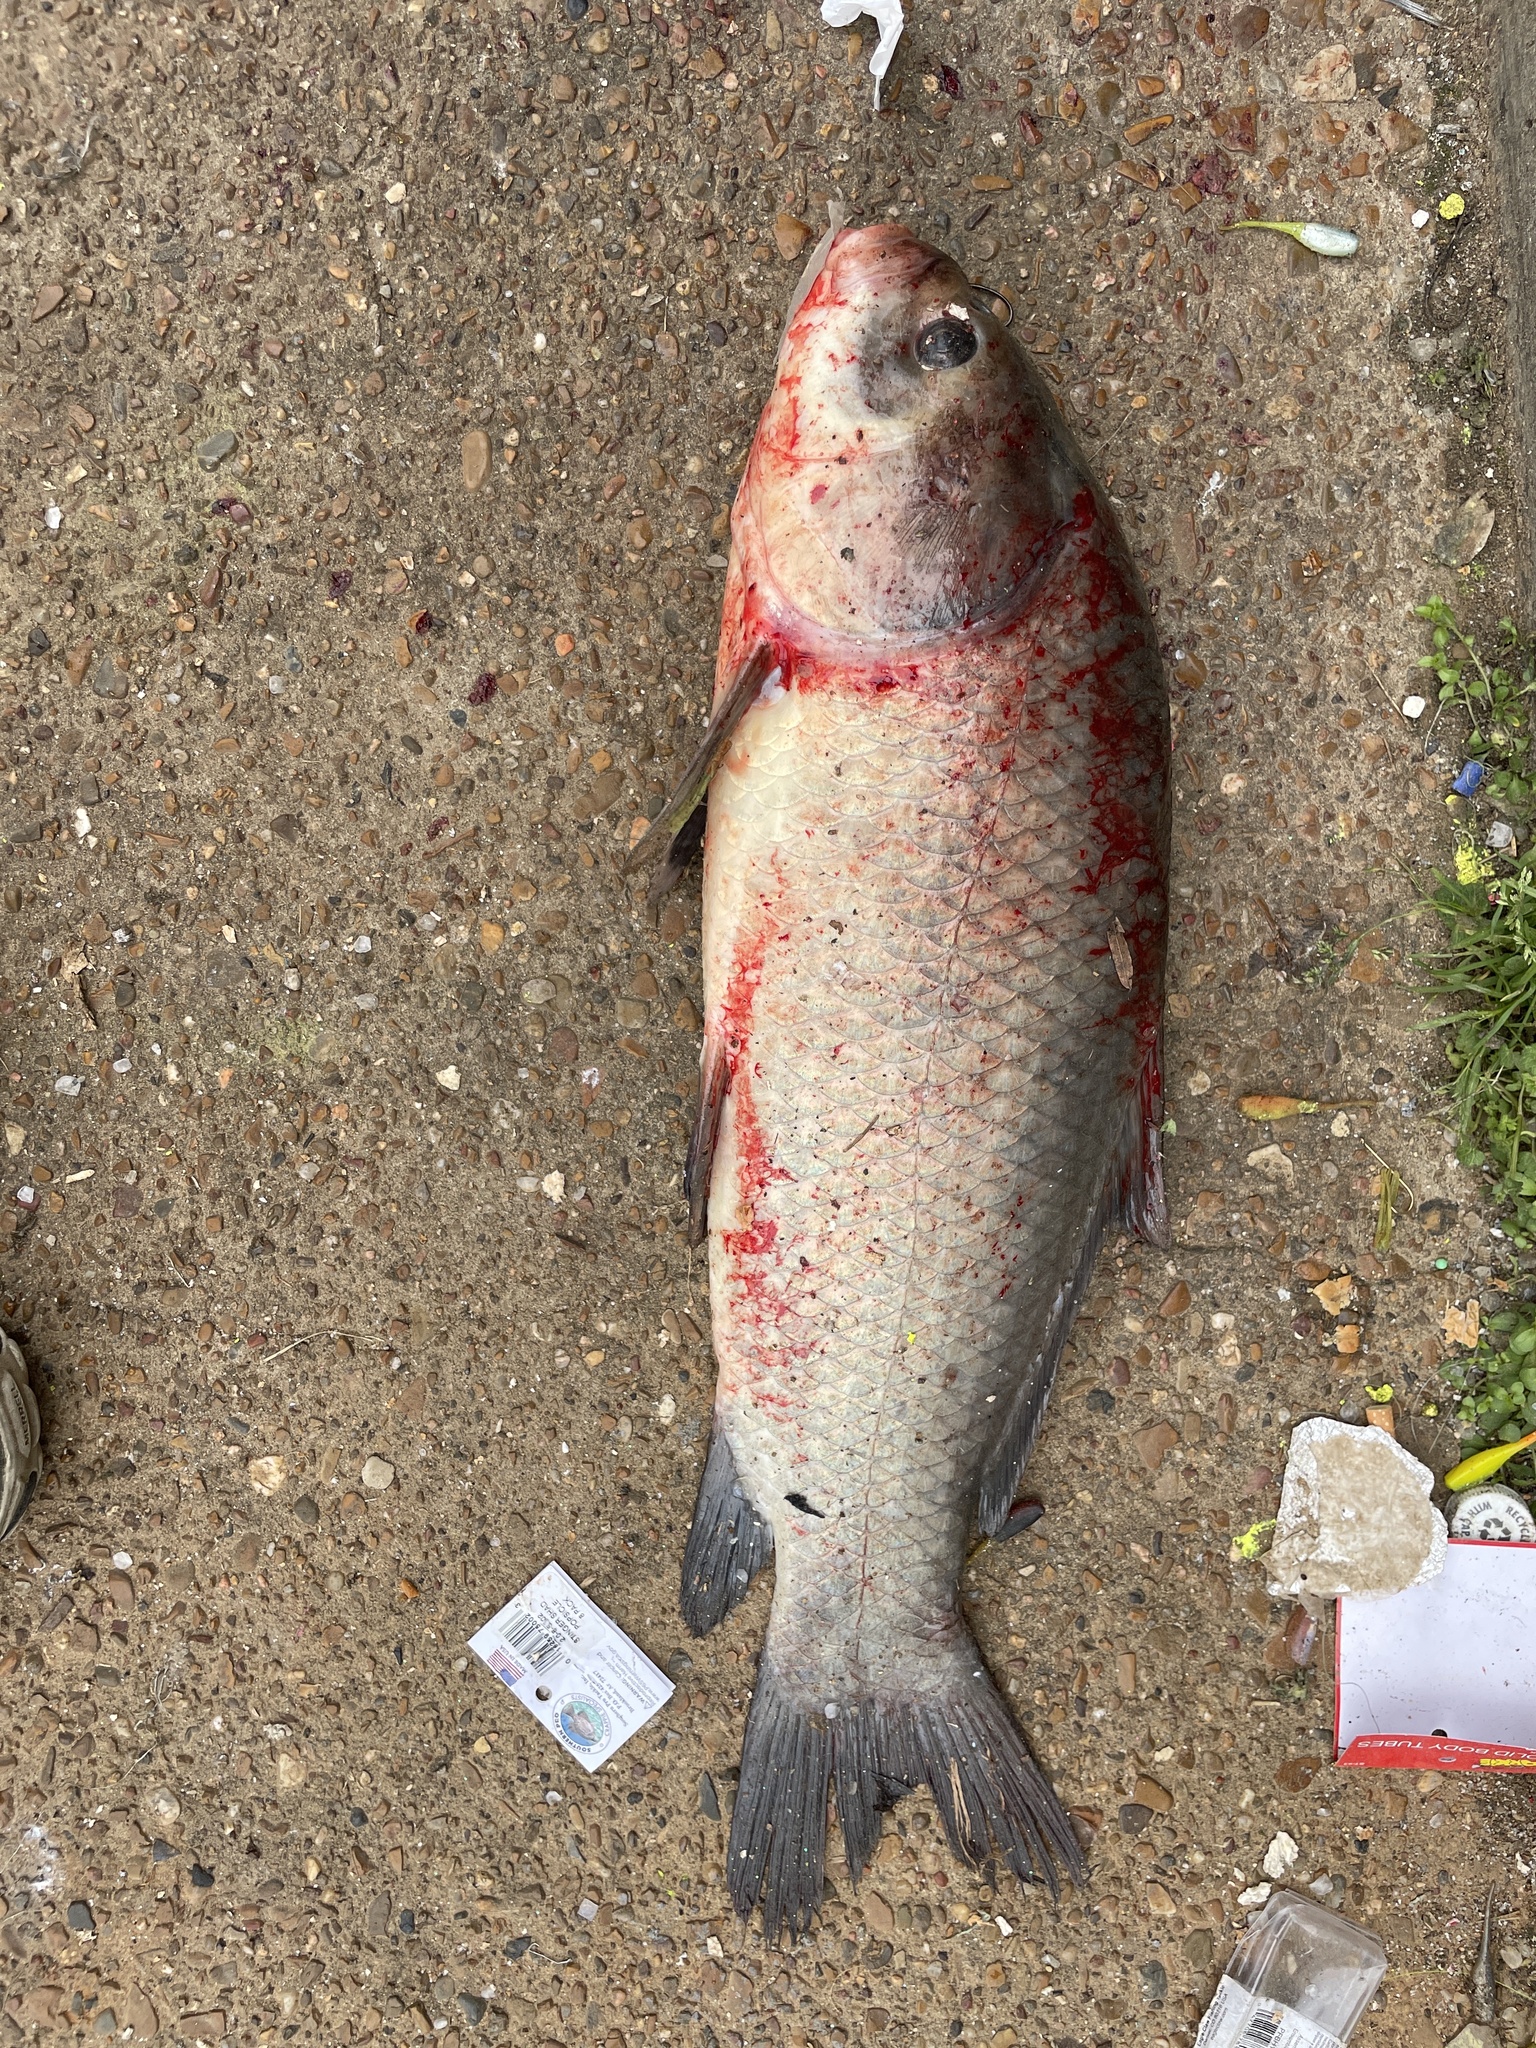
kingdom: Animalia
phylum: Chordata
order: Cypriniformes
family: Catostomidae
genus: Ictiobus
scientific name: Ictiobus cyprinellus
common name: Bigmouth buffalo
